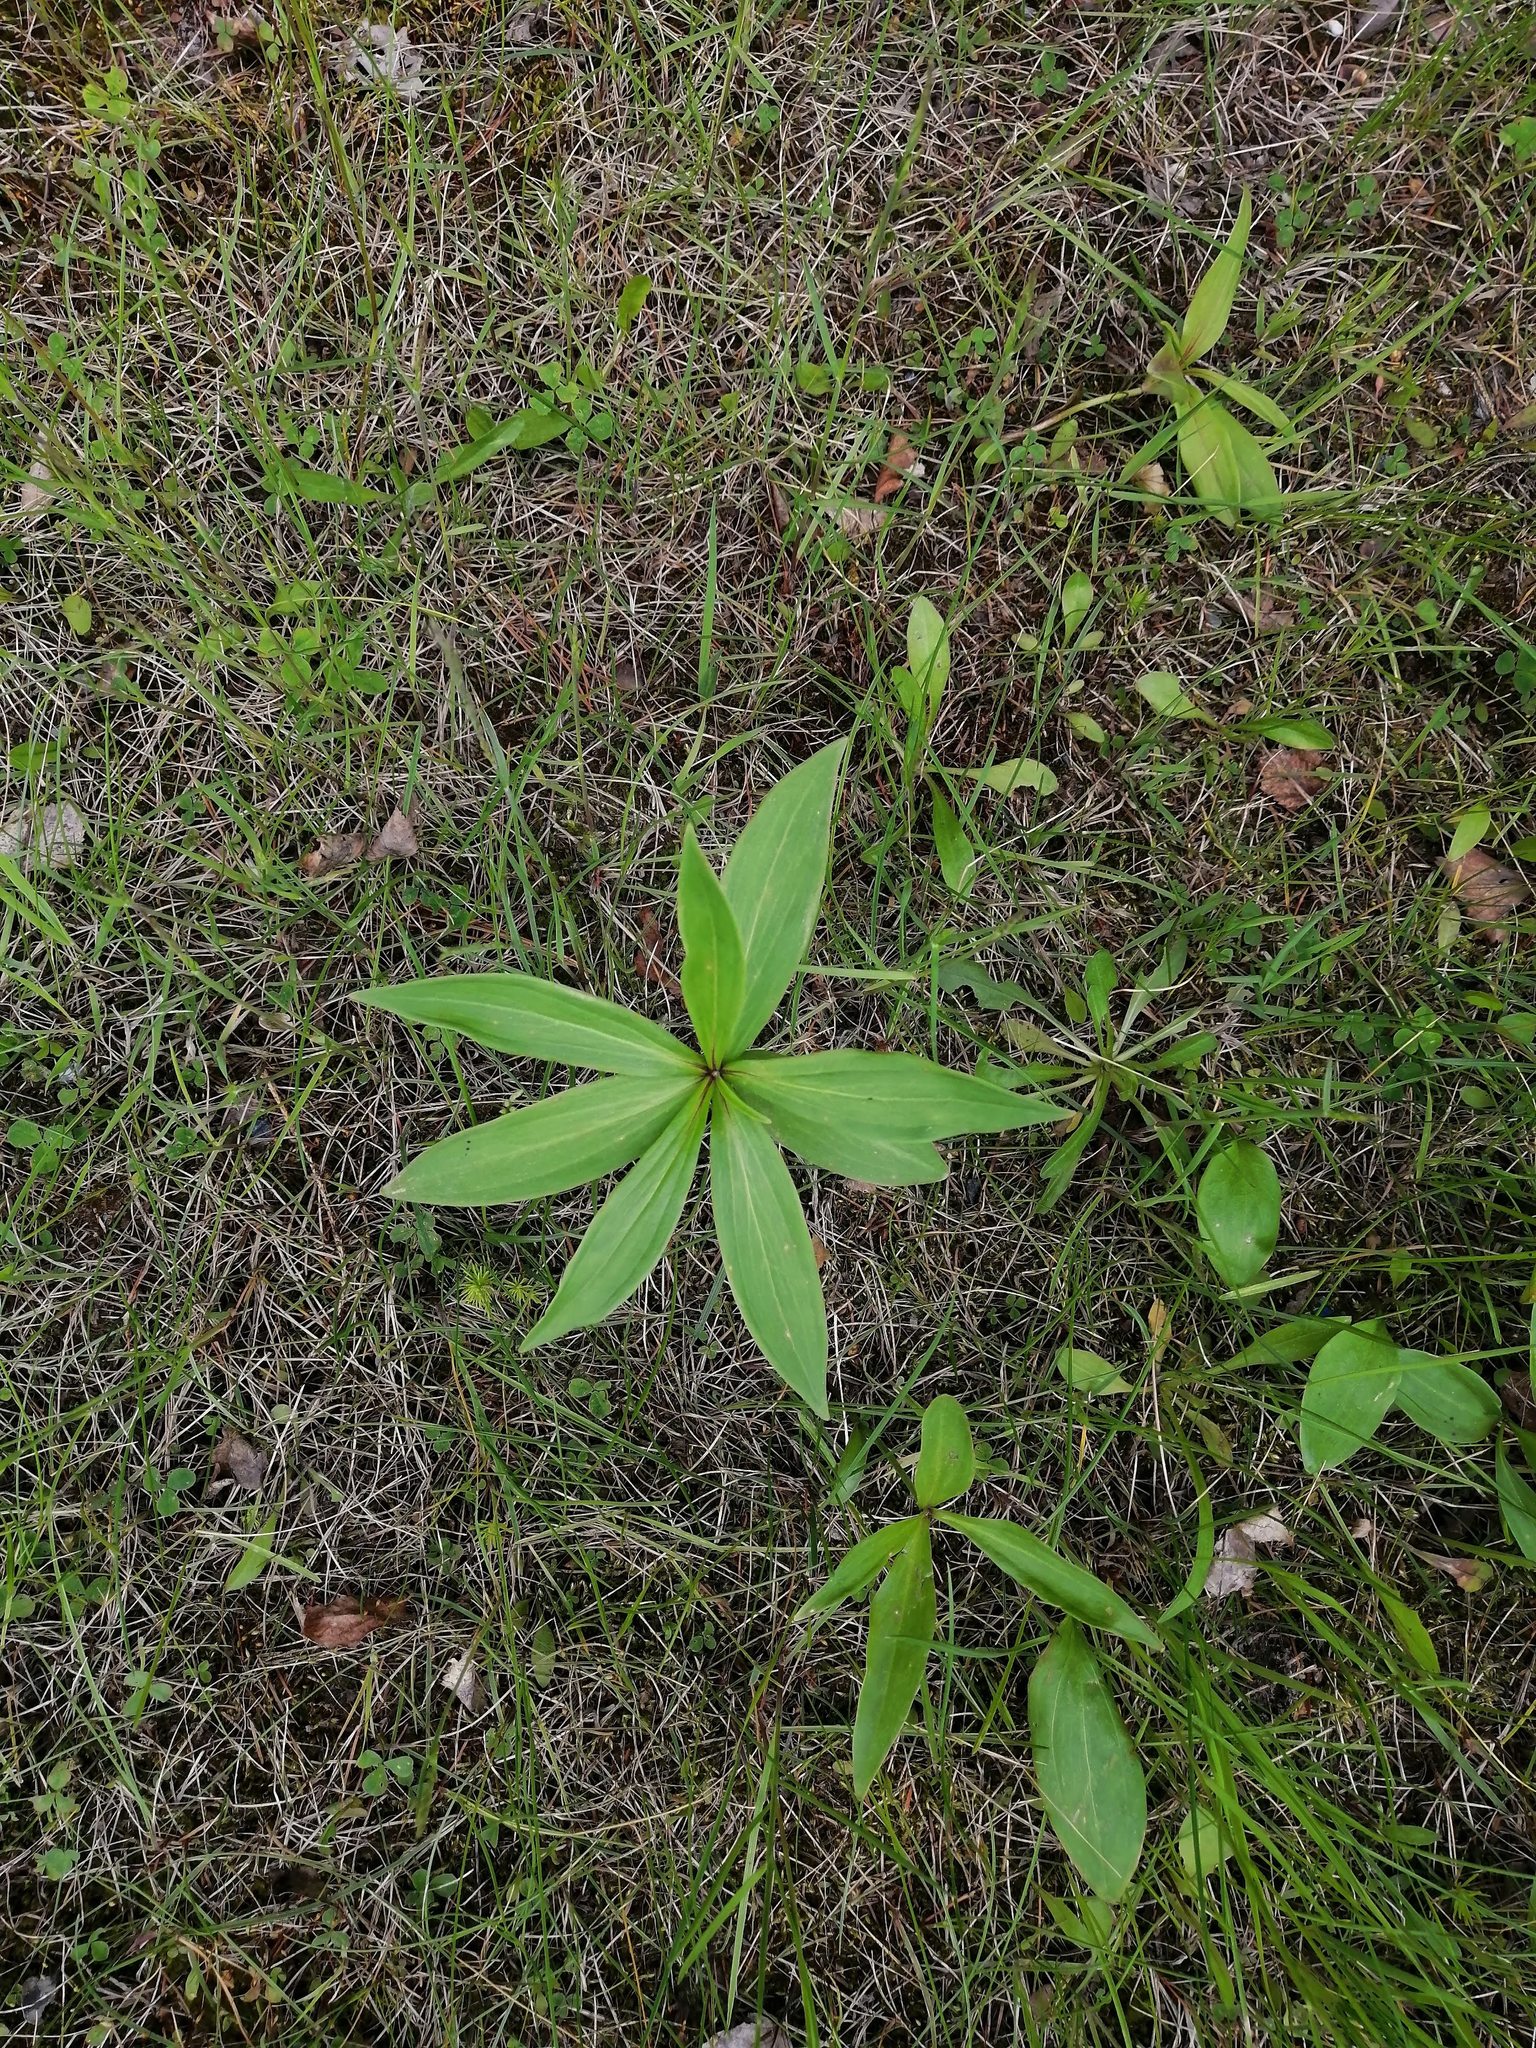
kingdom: Plantae
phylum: Tracheophyta
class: Liliopsida
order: Liliales
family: Liliaceae
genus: Lilium
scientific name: Lilium martagon
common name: Martagon lily
